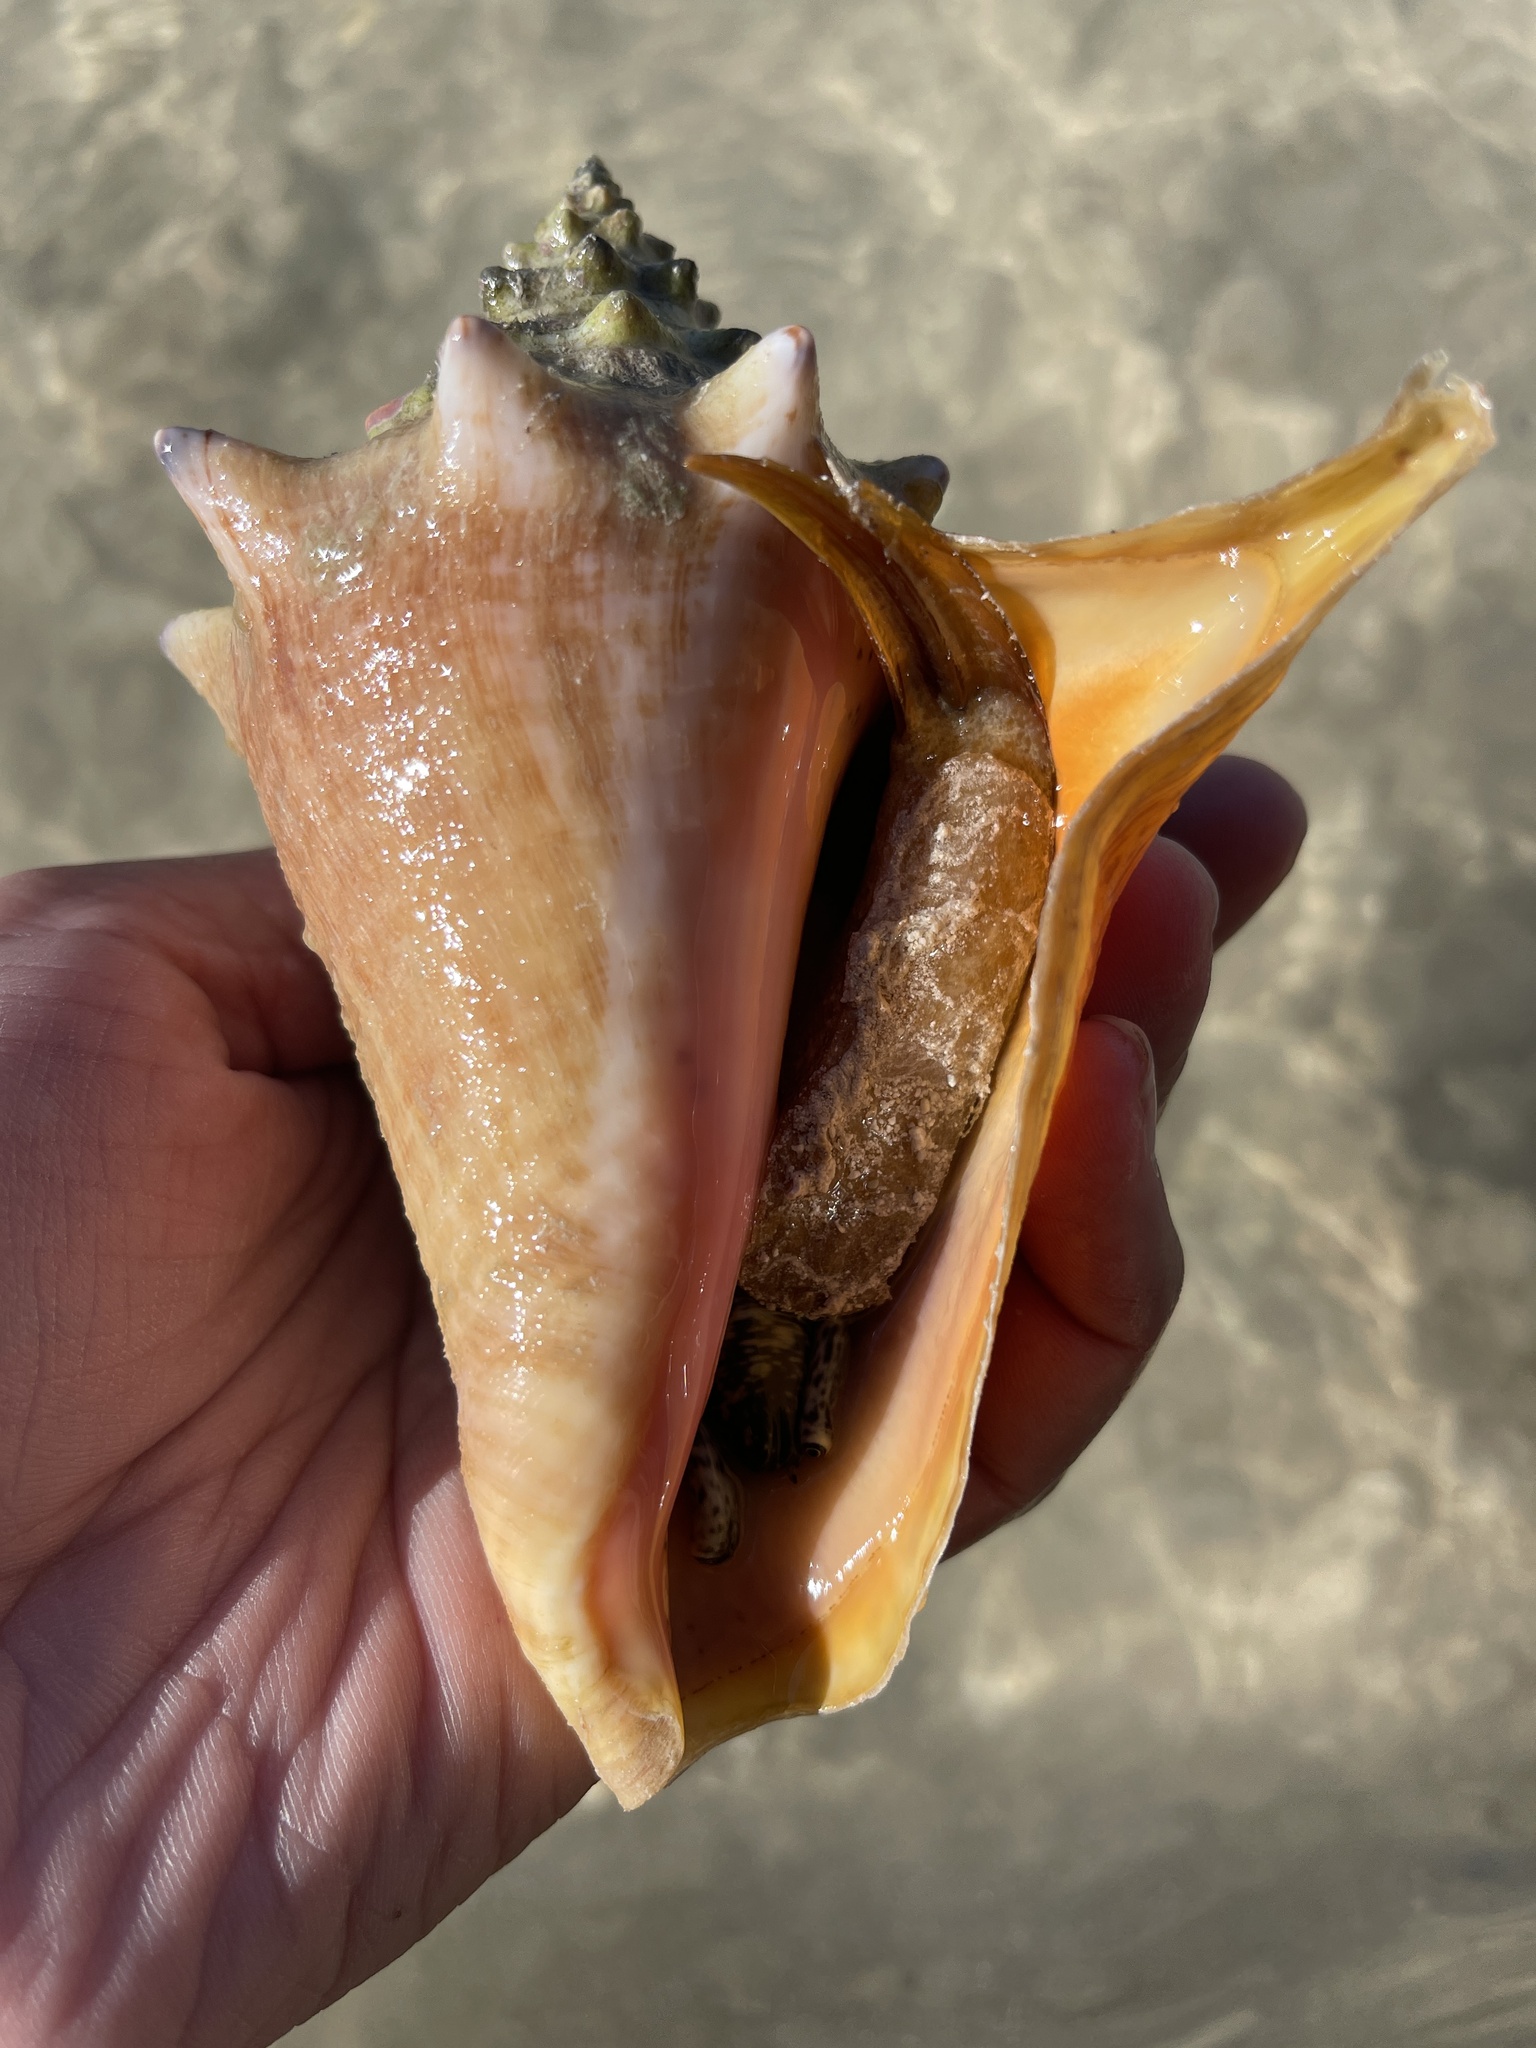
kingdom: Animalia
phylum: Mollusca
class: Gastropoda
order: Littorinimorpha
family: Strombidae
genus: Aliger
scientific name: Aliger gigas
